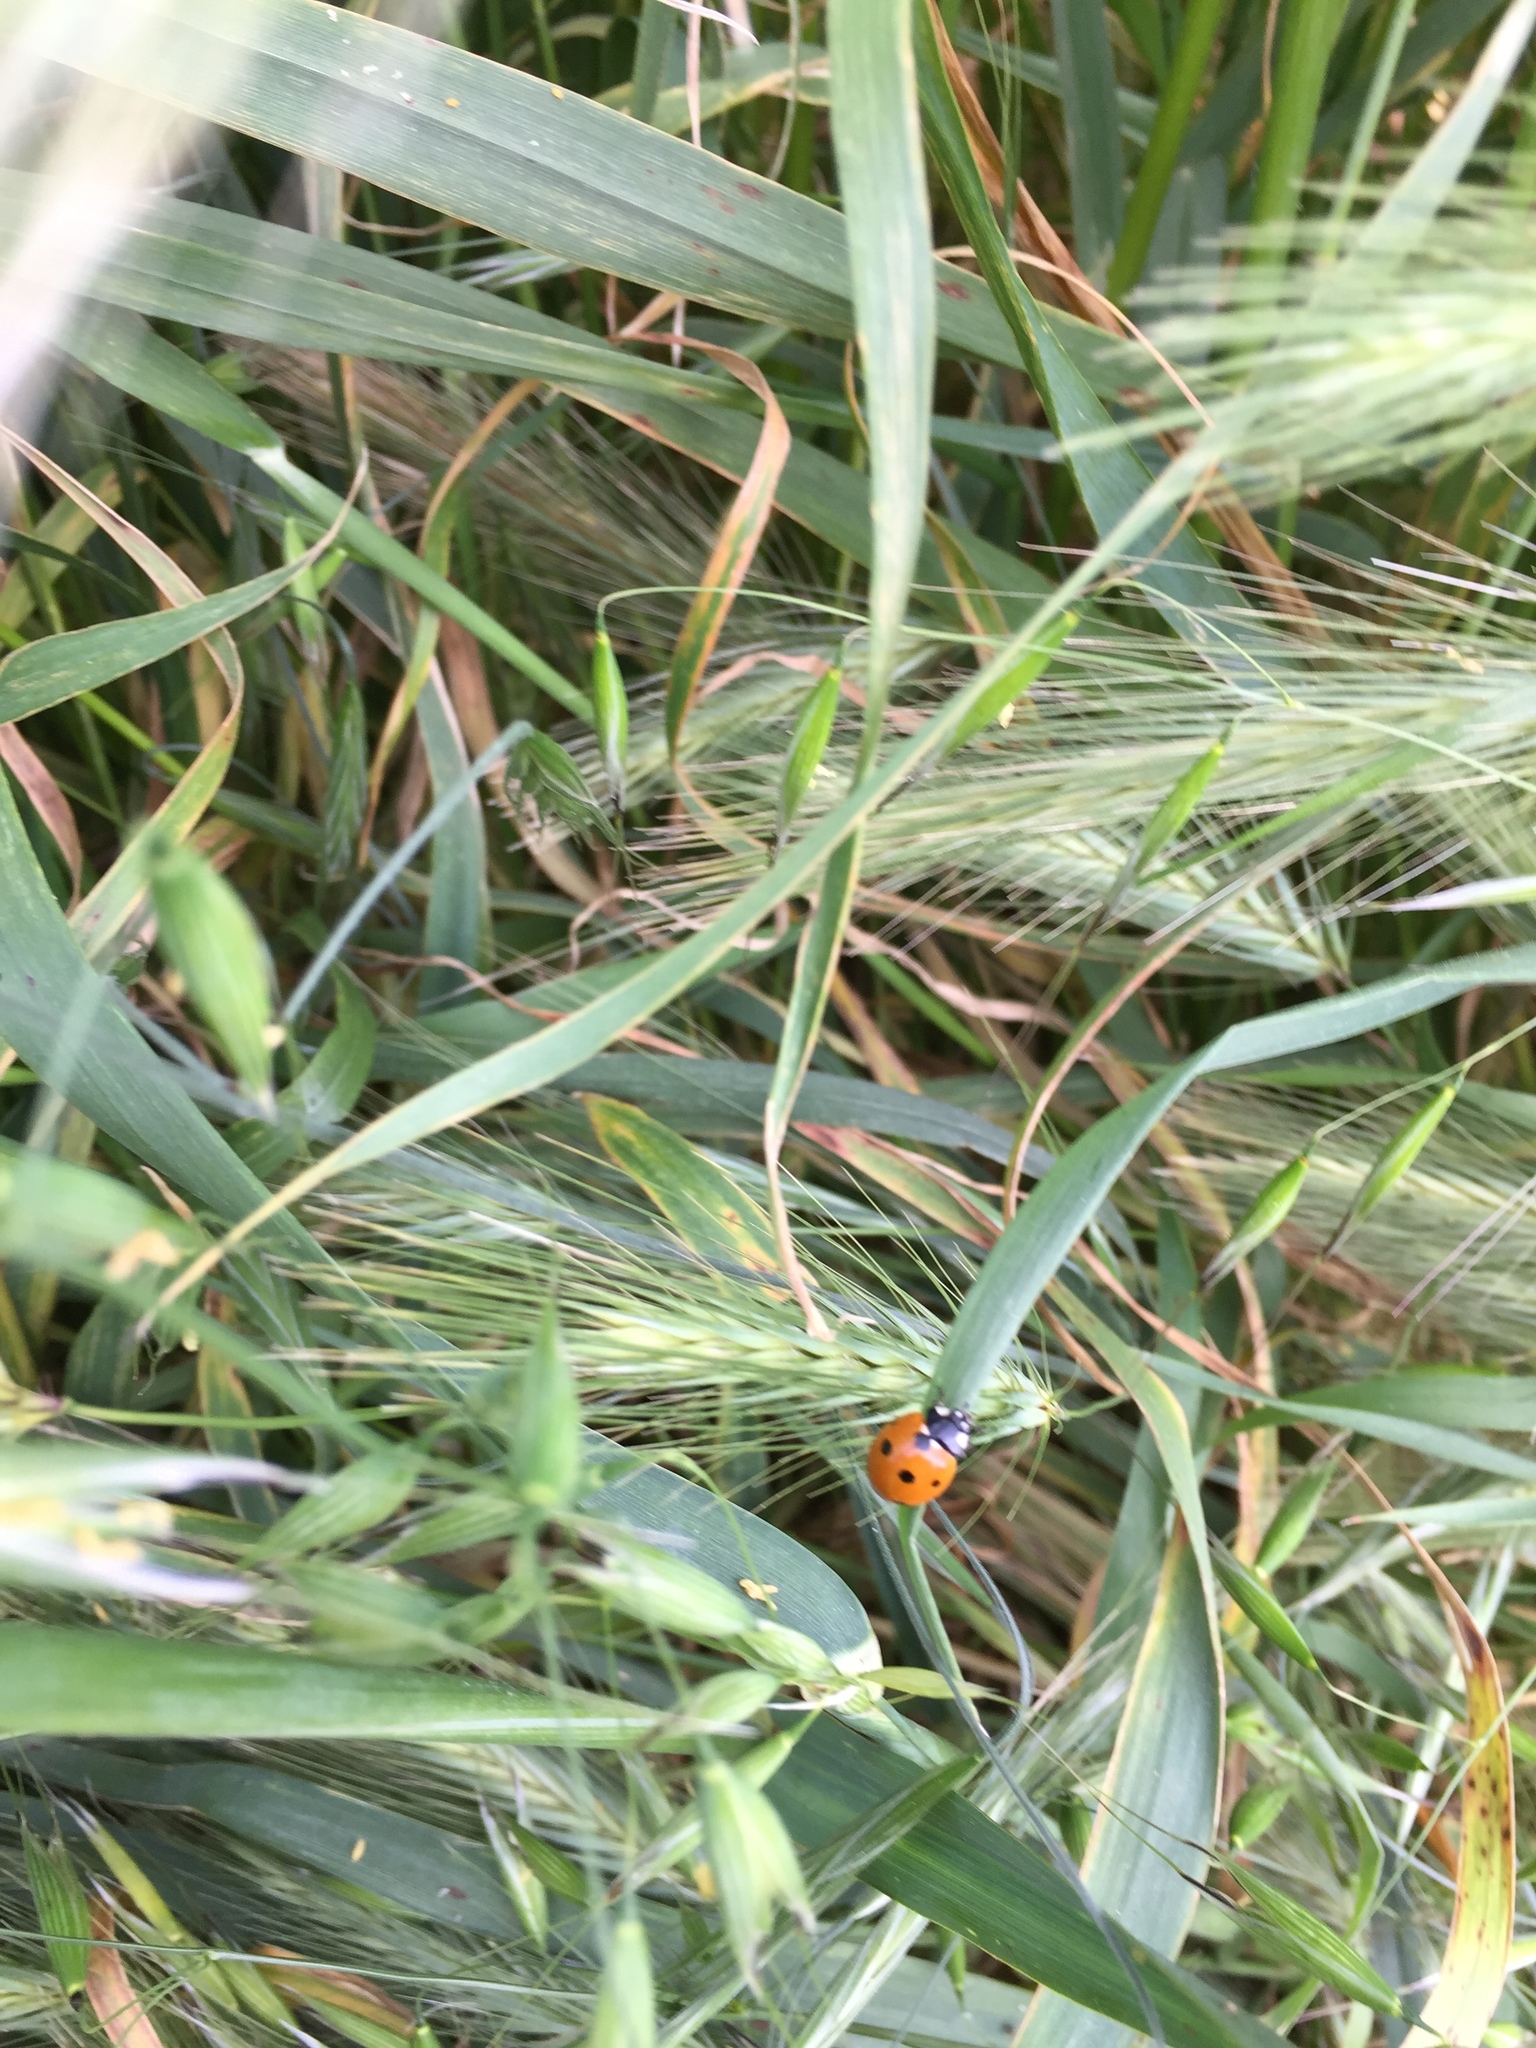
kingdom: Animalia
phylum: Arthropoda
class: Insecta
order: Coleoptera
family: Coccinellidae
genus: Coccinella
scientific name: Coccinella septempunctata
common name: Sevenspotted lady beetle
